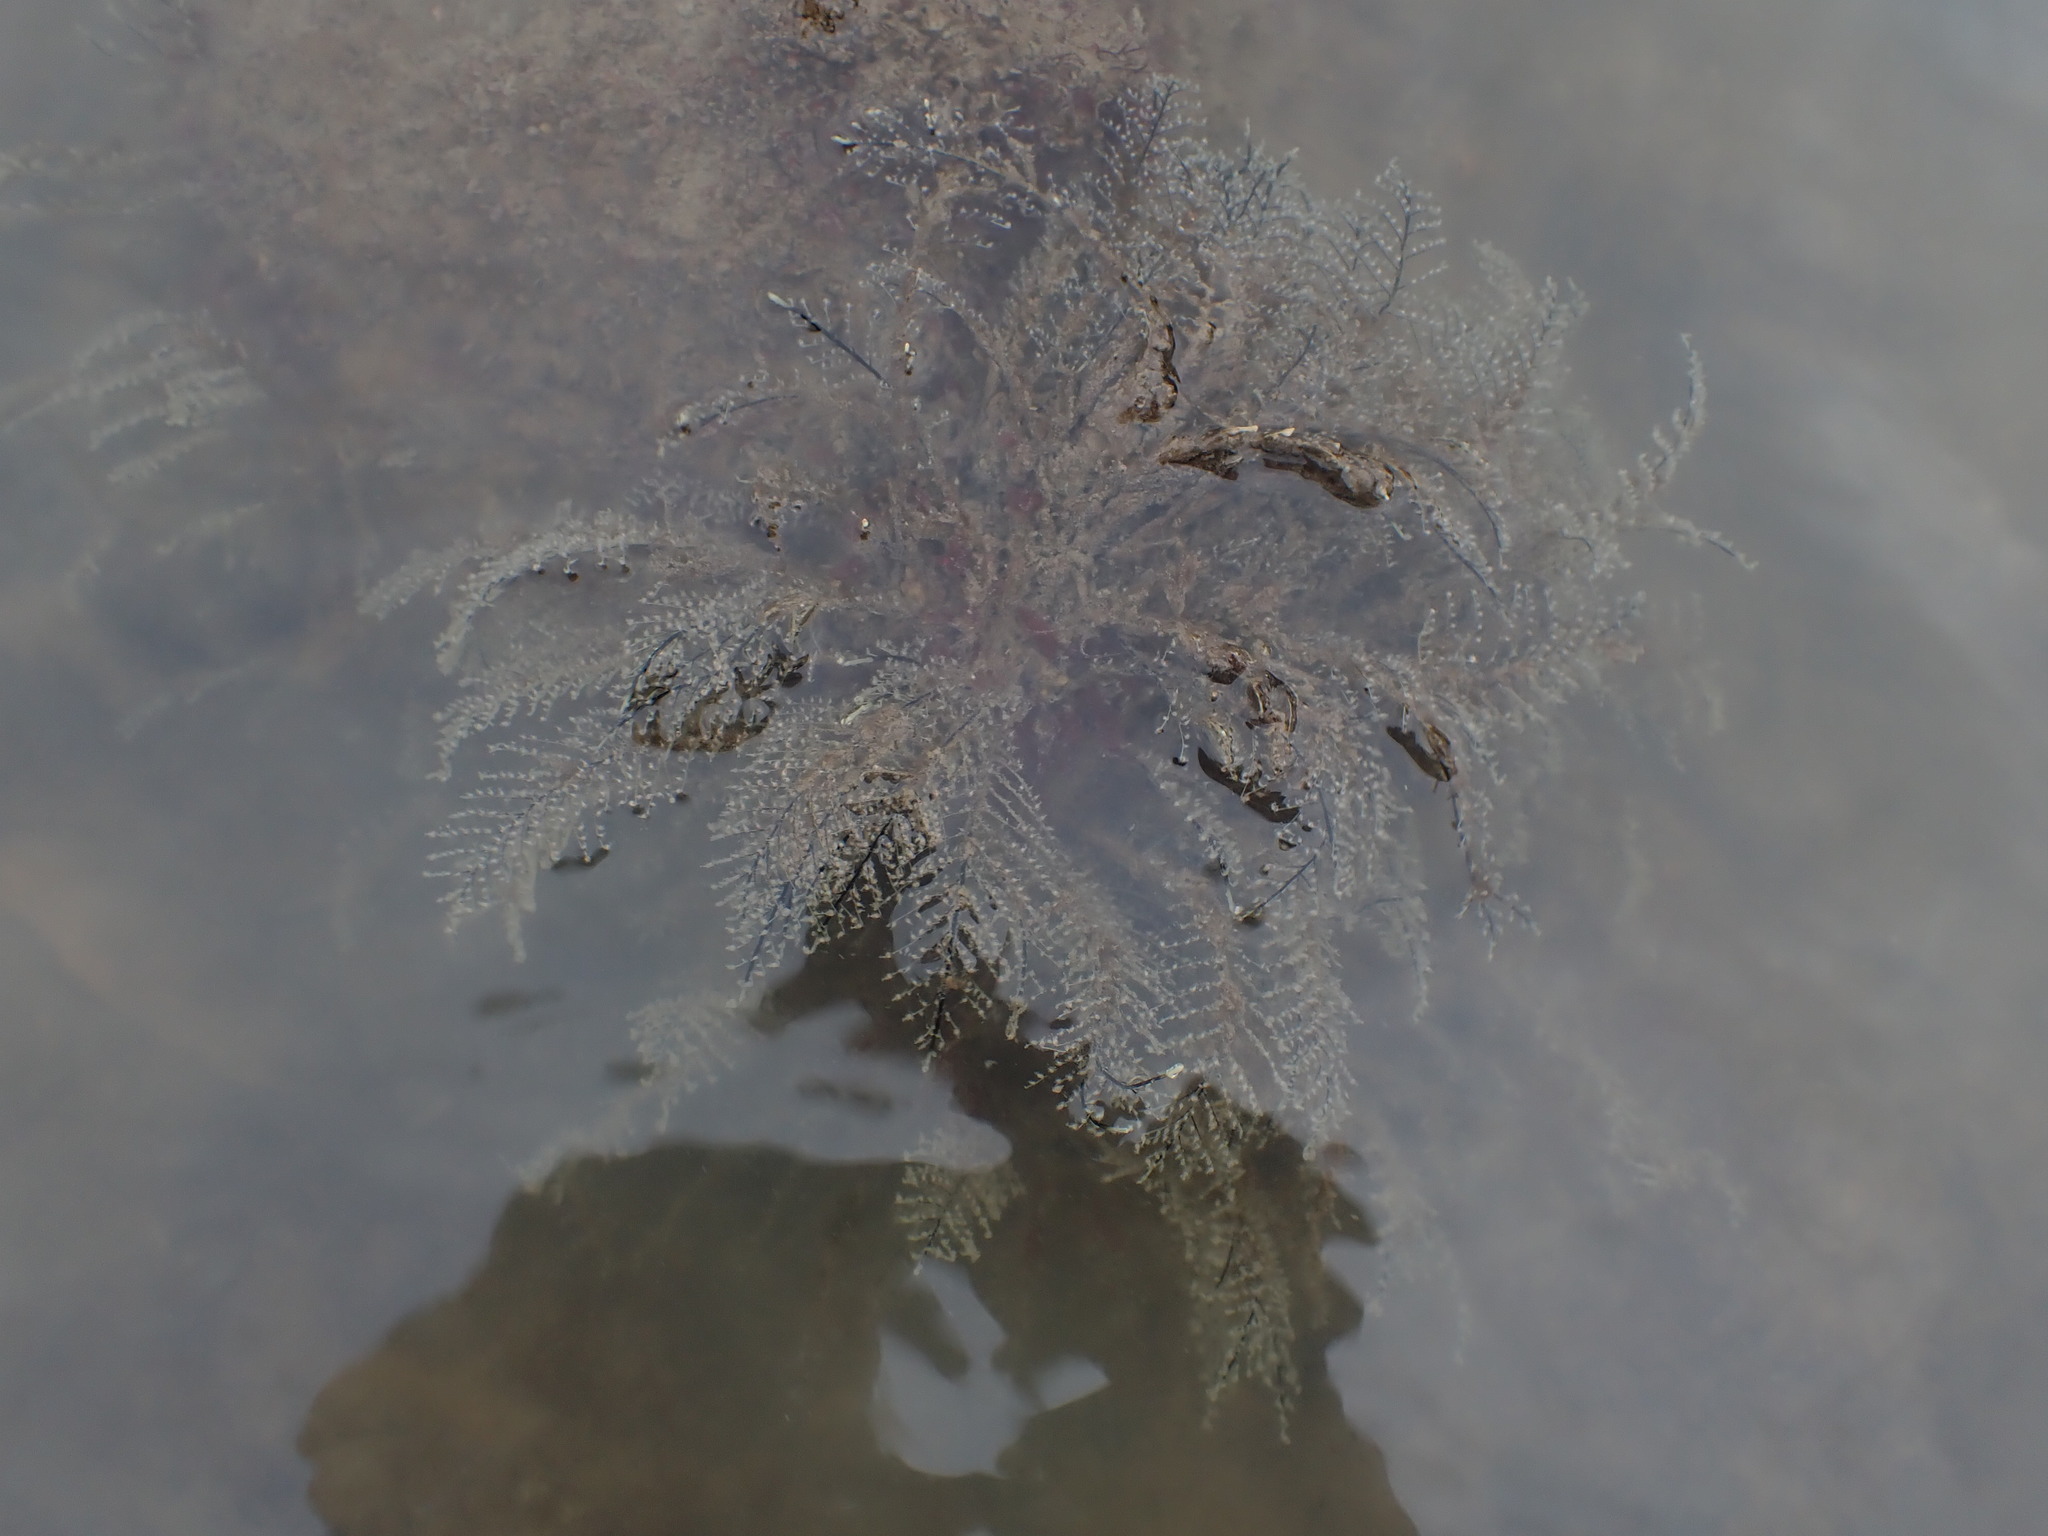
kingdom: Animalia
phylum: Cnidaria
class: Hydrozoa
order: Anthoathecata
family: Pennariidae
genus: Pennaria
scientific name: Pennaria disticha
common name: Feather hydroid
